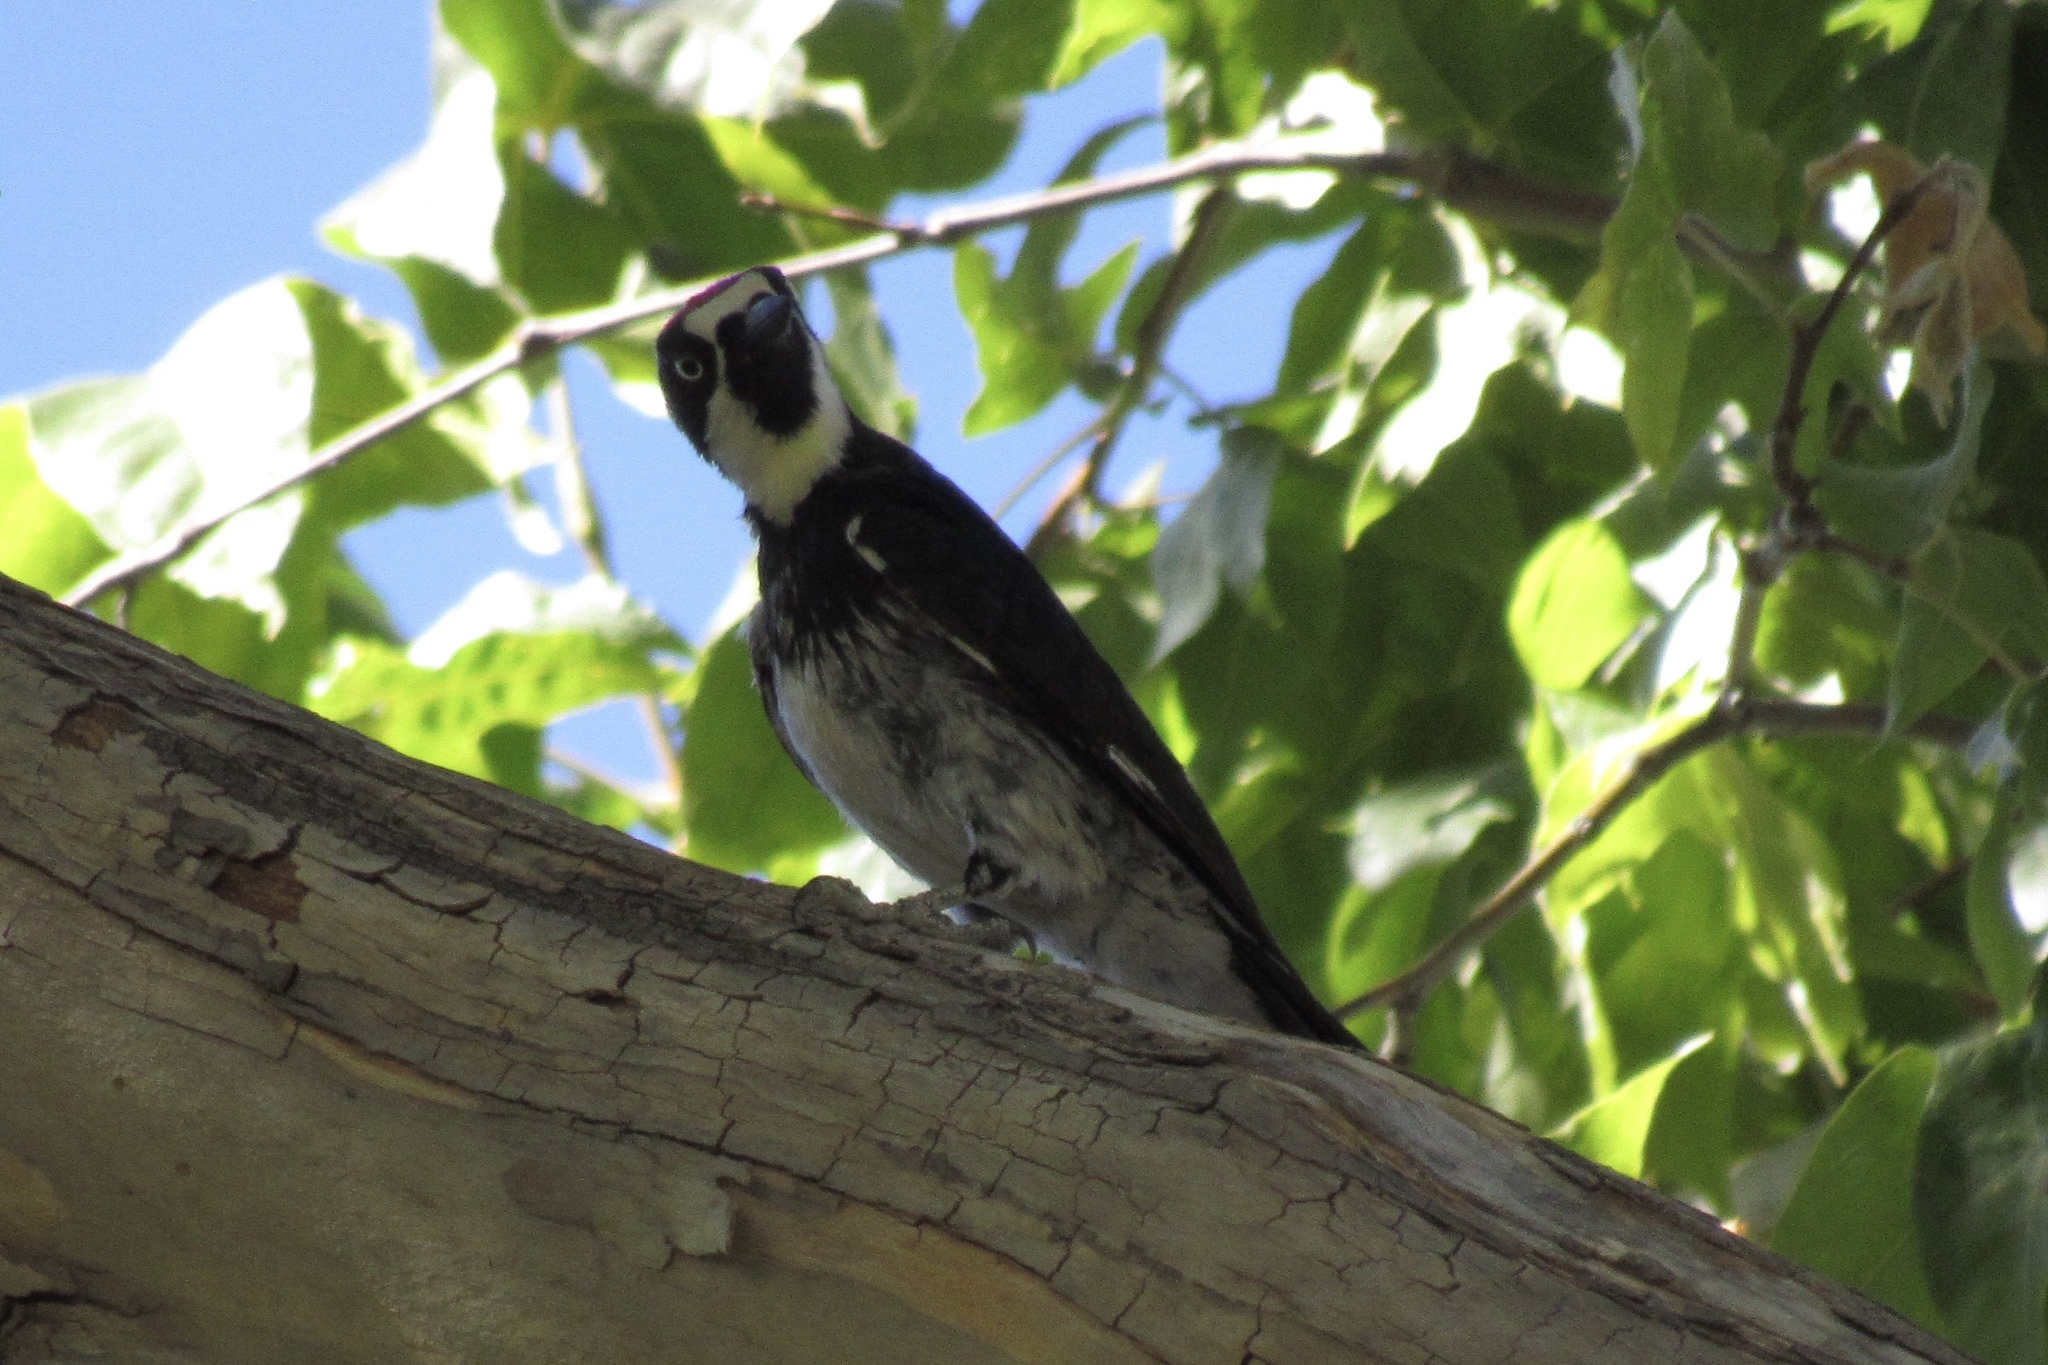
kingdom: Animalia
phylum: Chordata
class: Aves
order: Piciformes
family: Picidae
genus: Melanerpes
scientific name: Melanerpes formicivorus
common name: Acorn woodpecker
